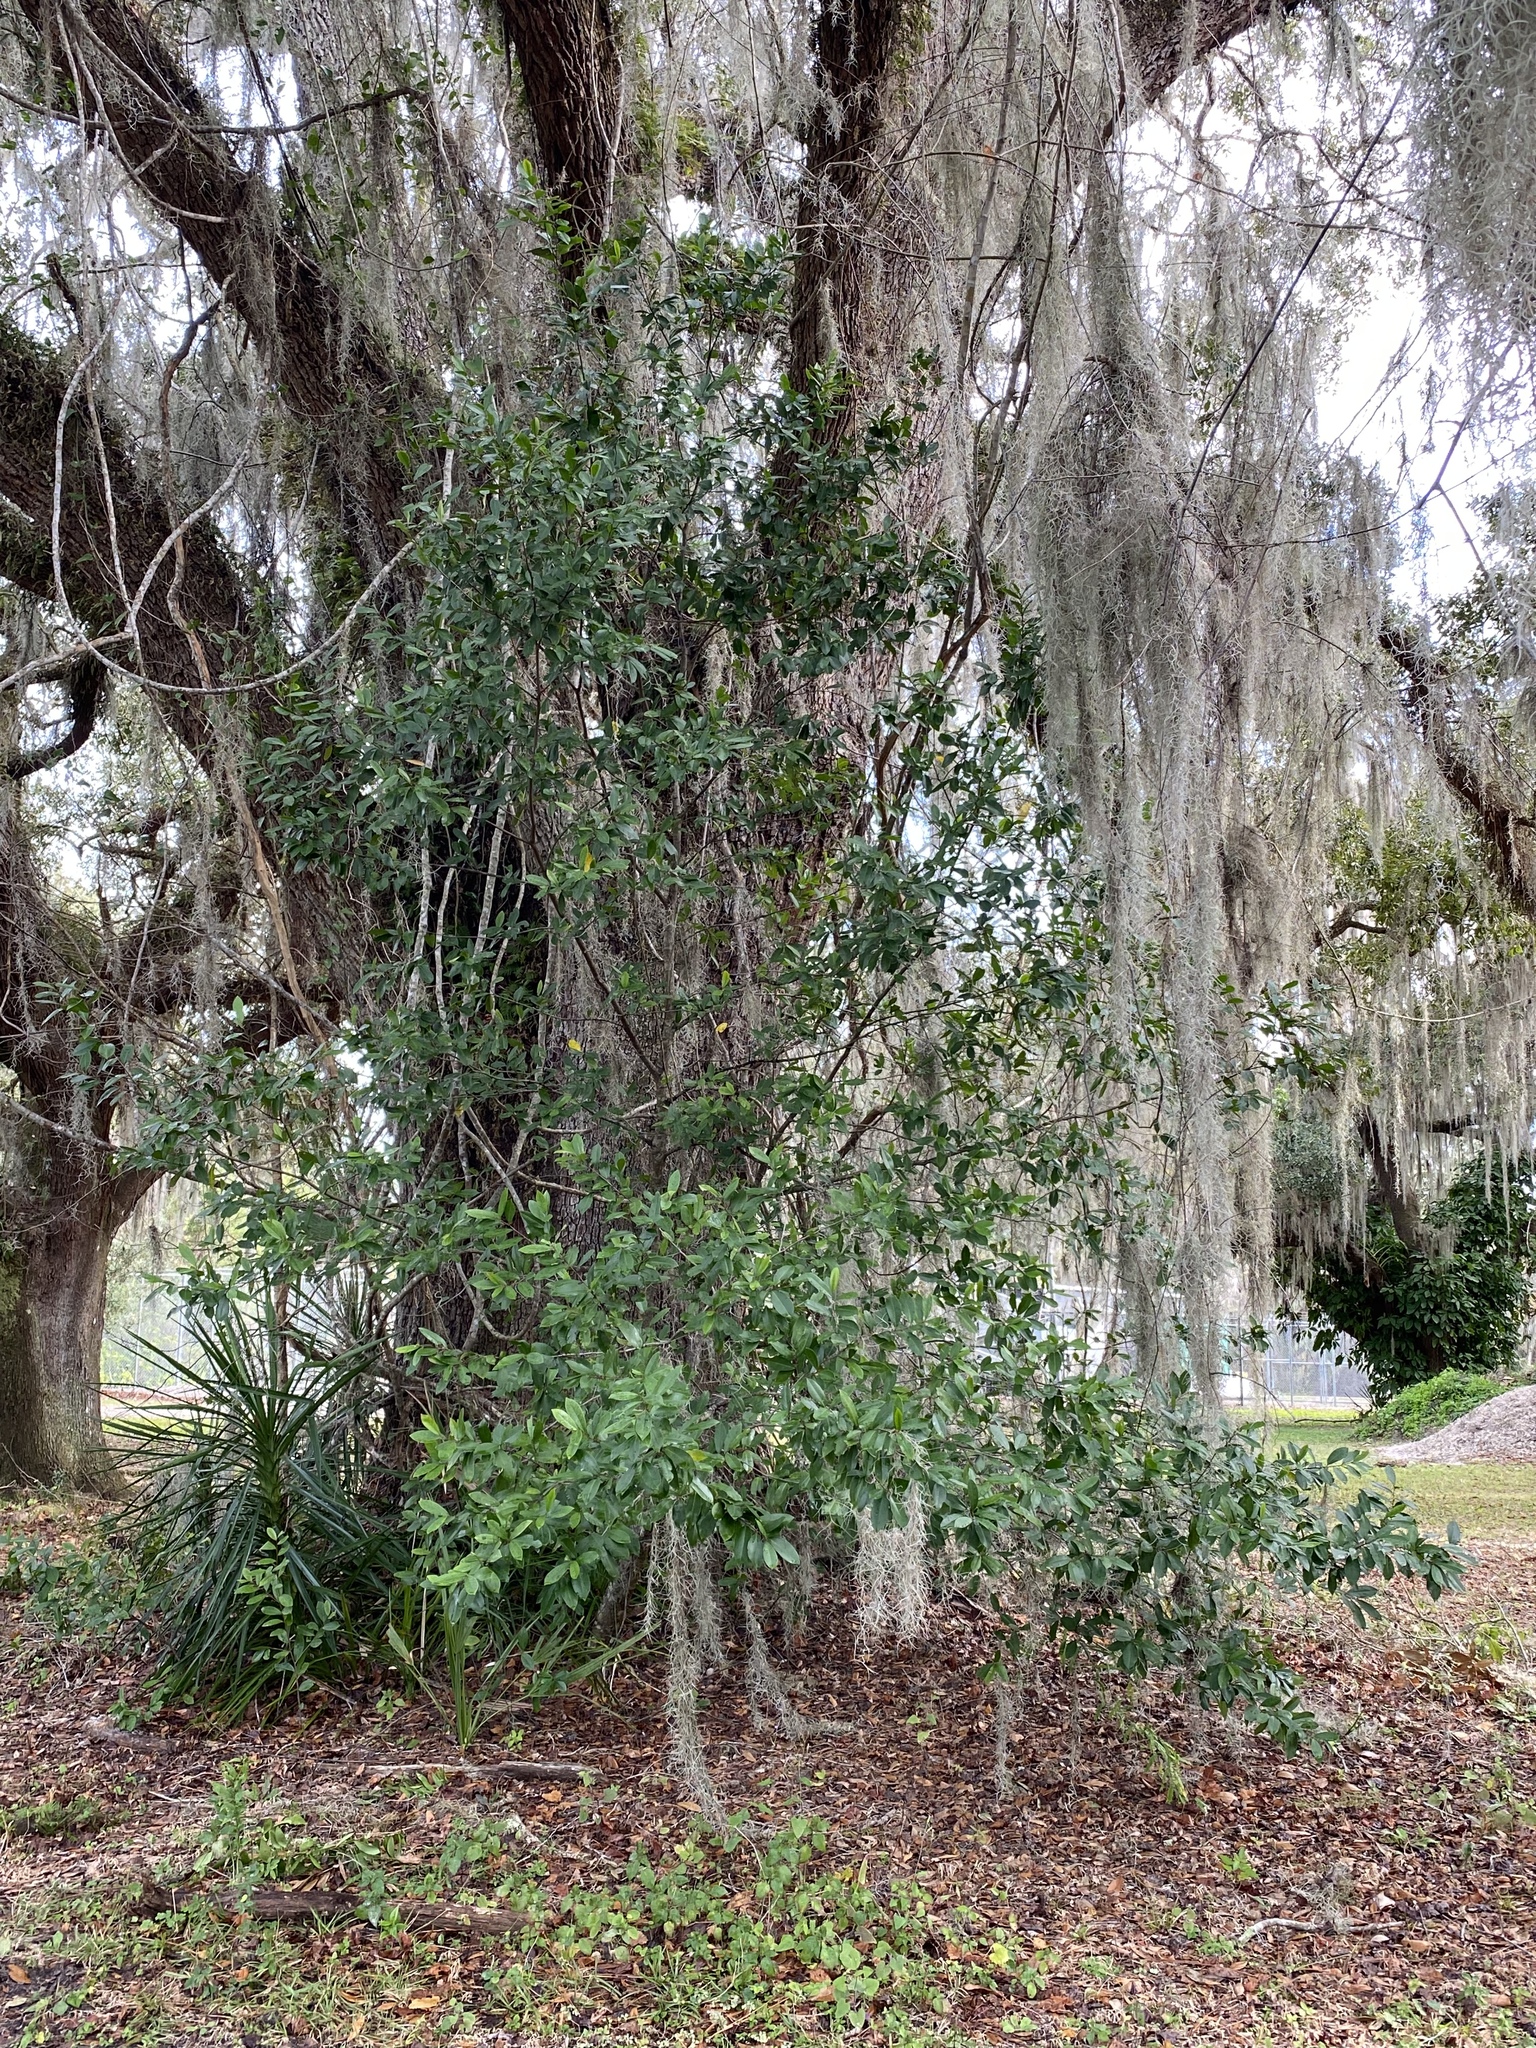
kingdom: Plantae
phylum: Tracheophyta
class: Magnoliopsida
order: Rosales
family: Rosaceae
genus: Prunus
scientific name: Prunus caroliniana
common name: Carolina laurel cherry
